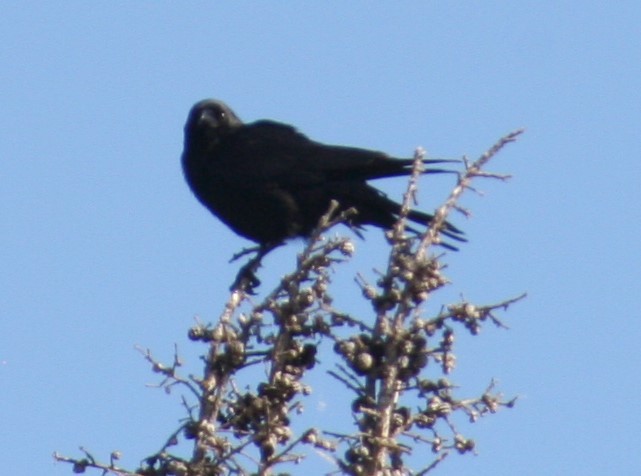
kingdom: Animalia
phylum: Chordata
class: Aves
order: Passeriformes
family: Corvidae
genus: Corvus
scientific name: Corvus brachyrhynchos
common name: American crow
